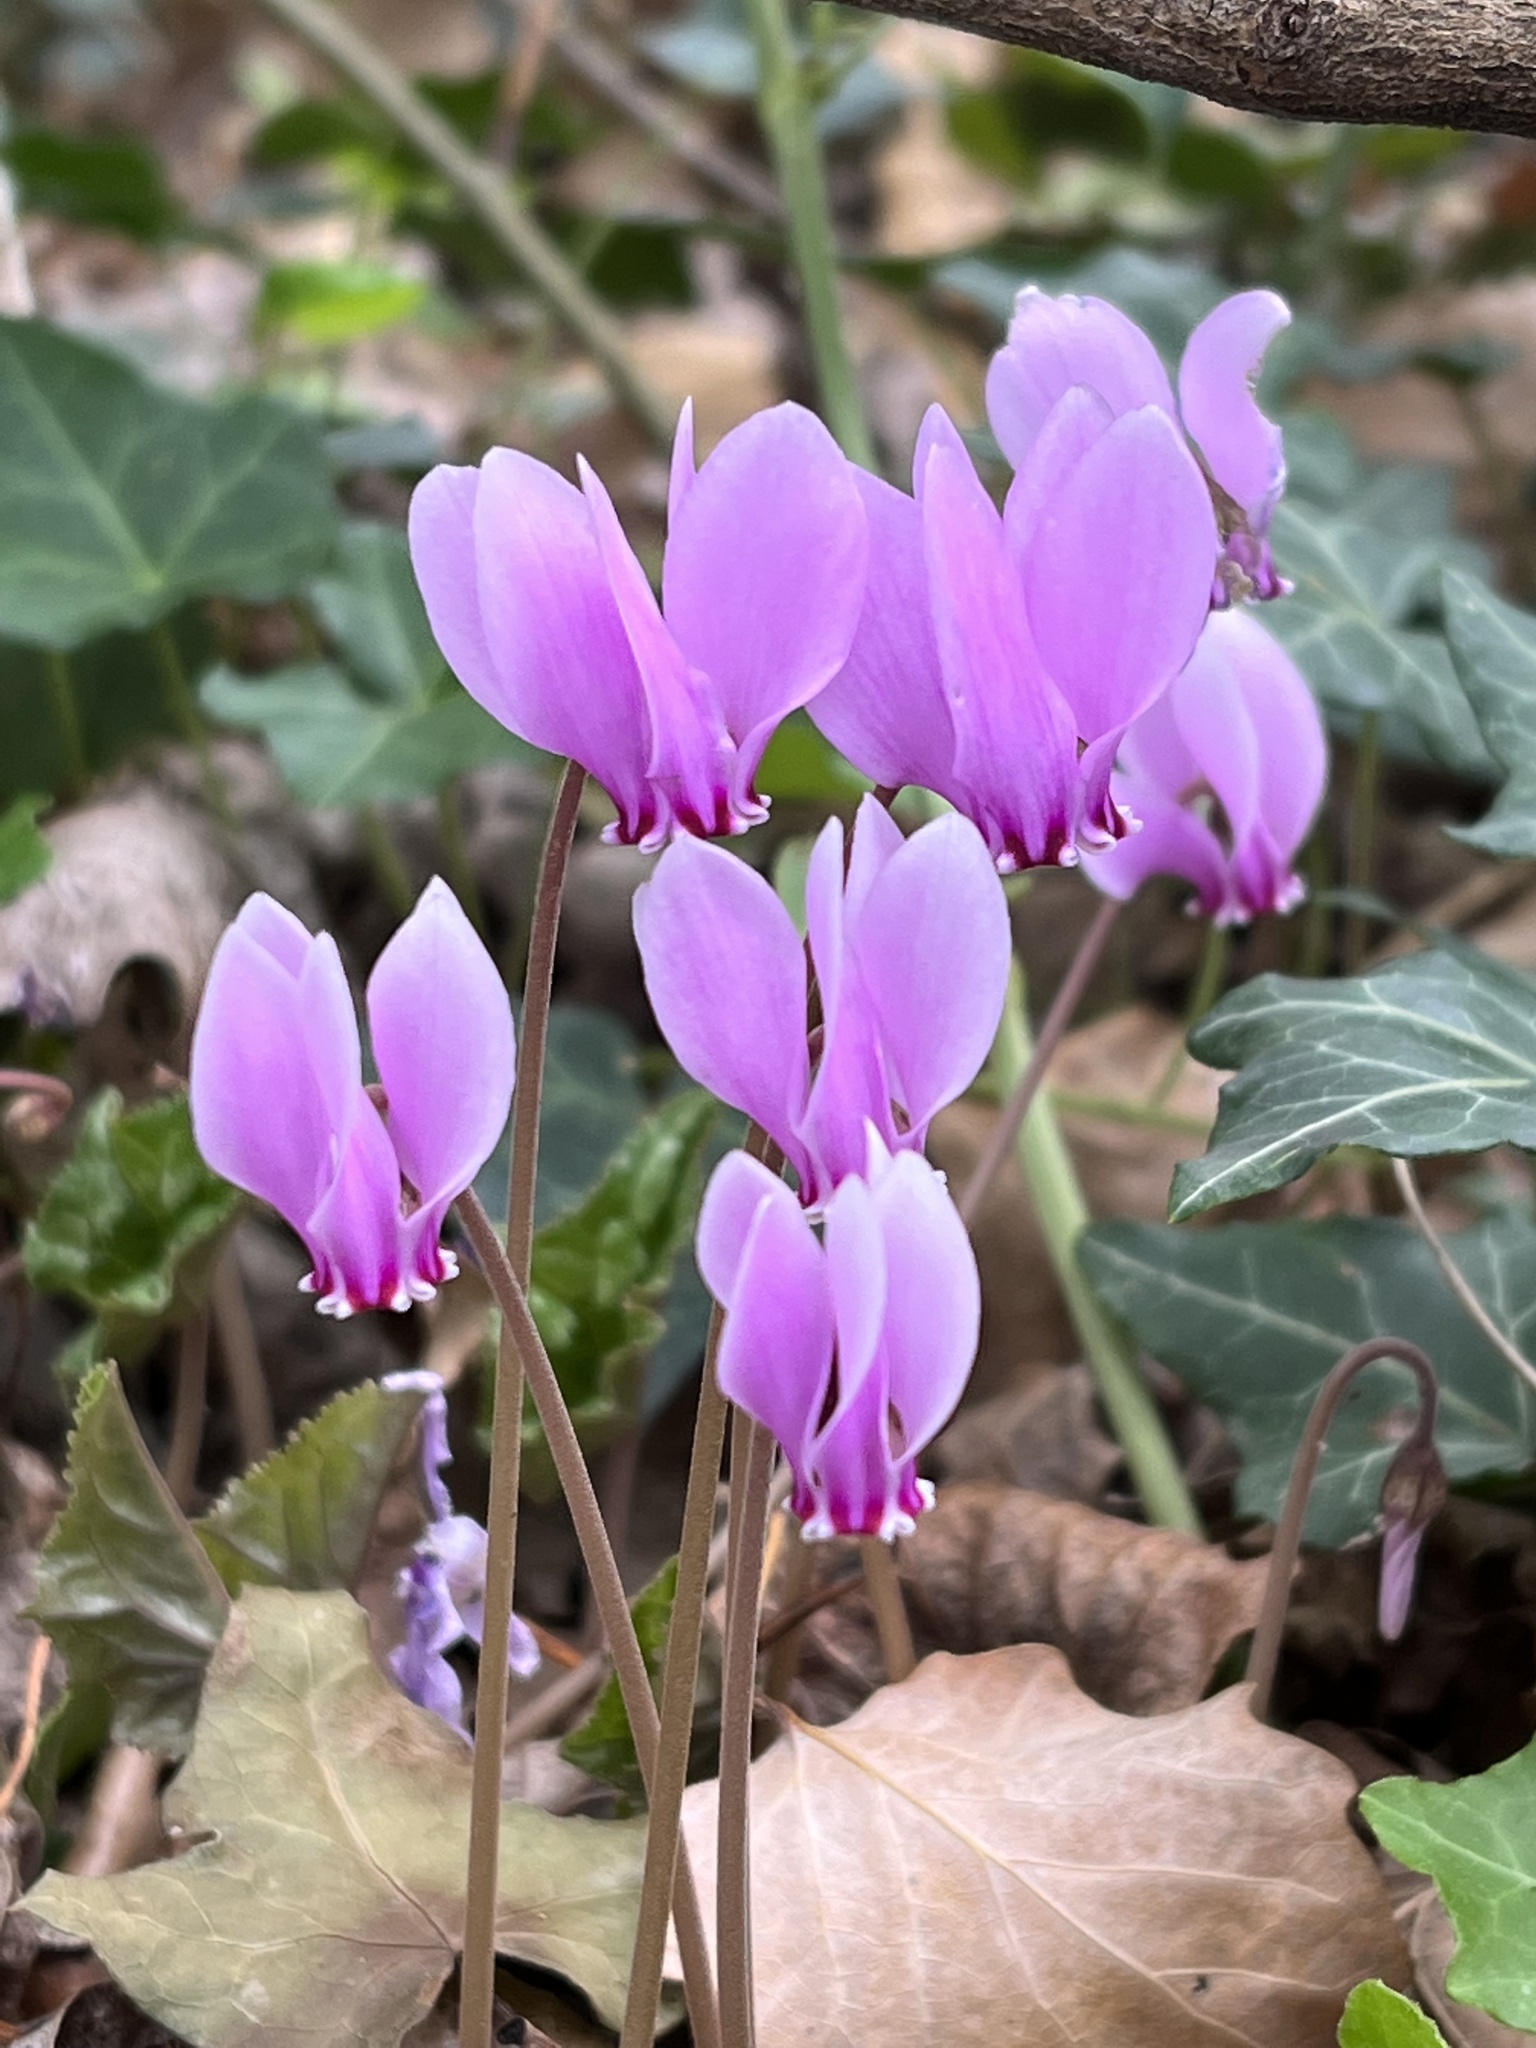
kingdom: Plantae
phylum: Tracheophyta
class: Magnoliopsida
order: Ericales
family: Primulaceae
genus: Cyclamen
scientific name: Cyclamen hederifolium
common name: Sowbread
